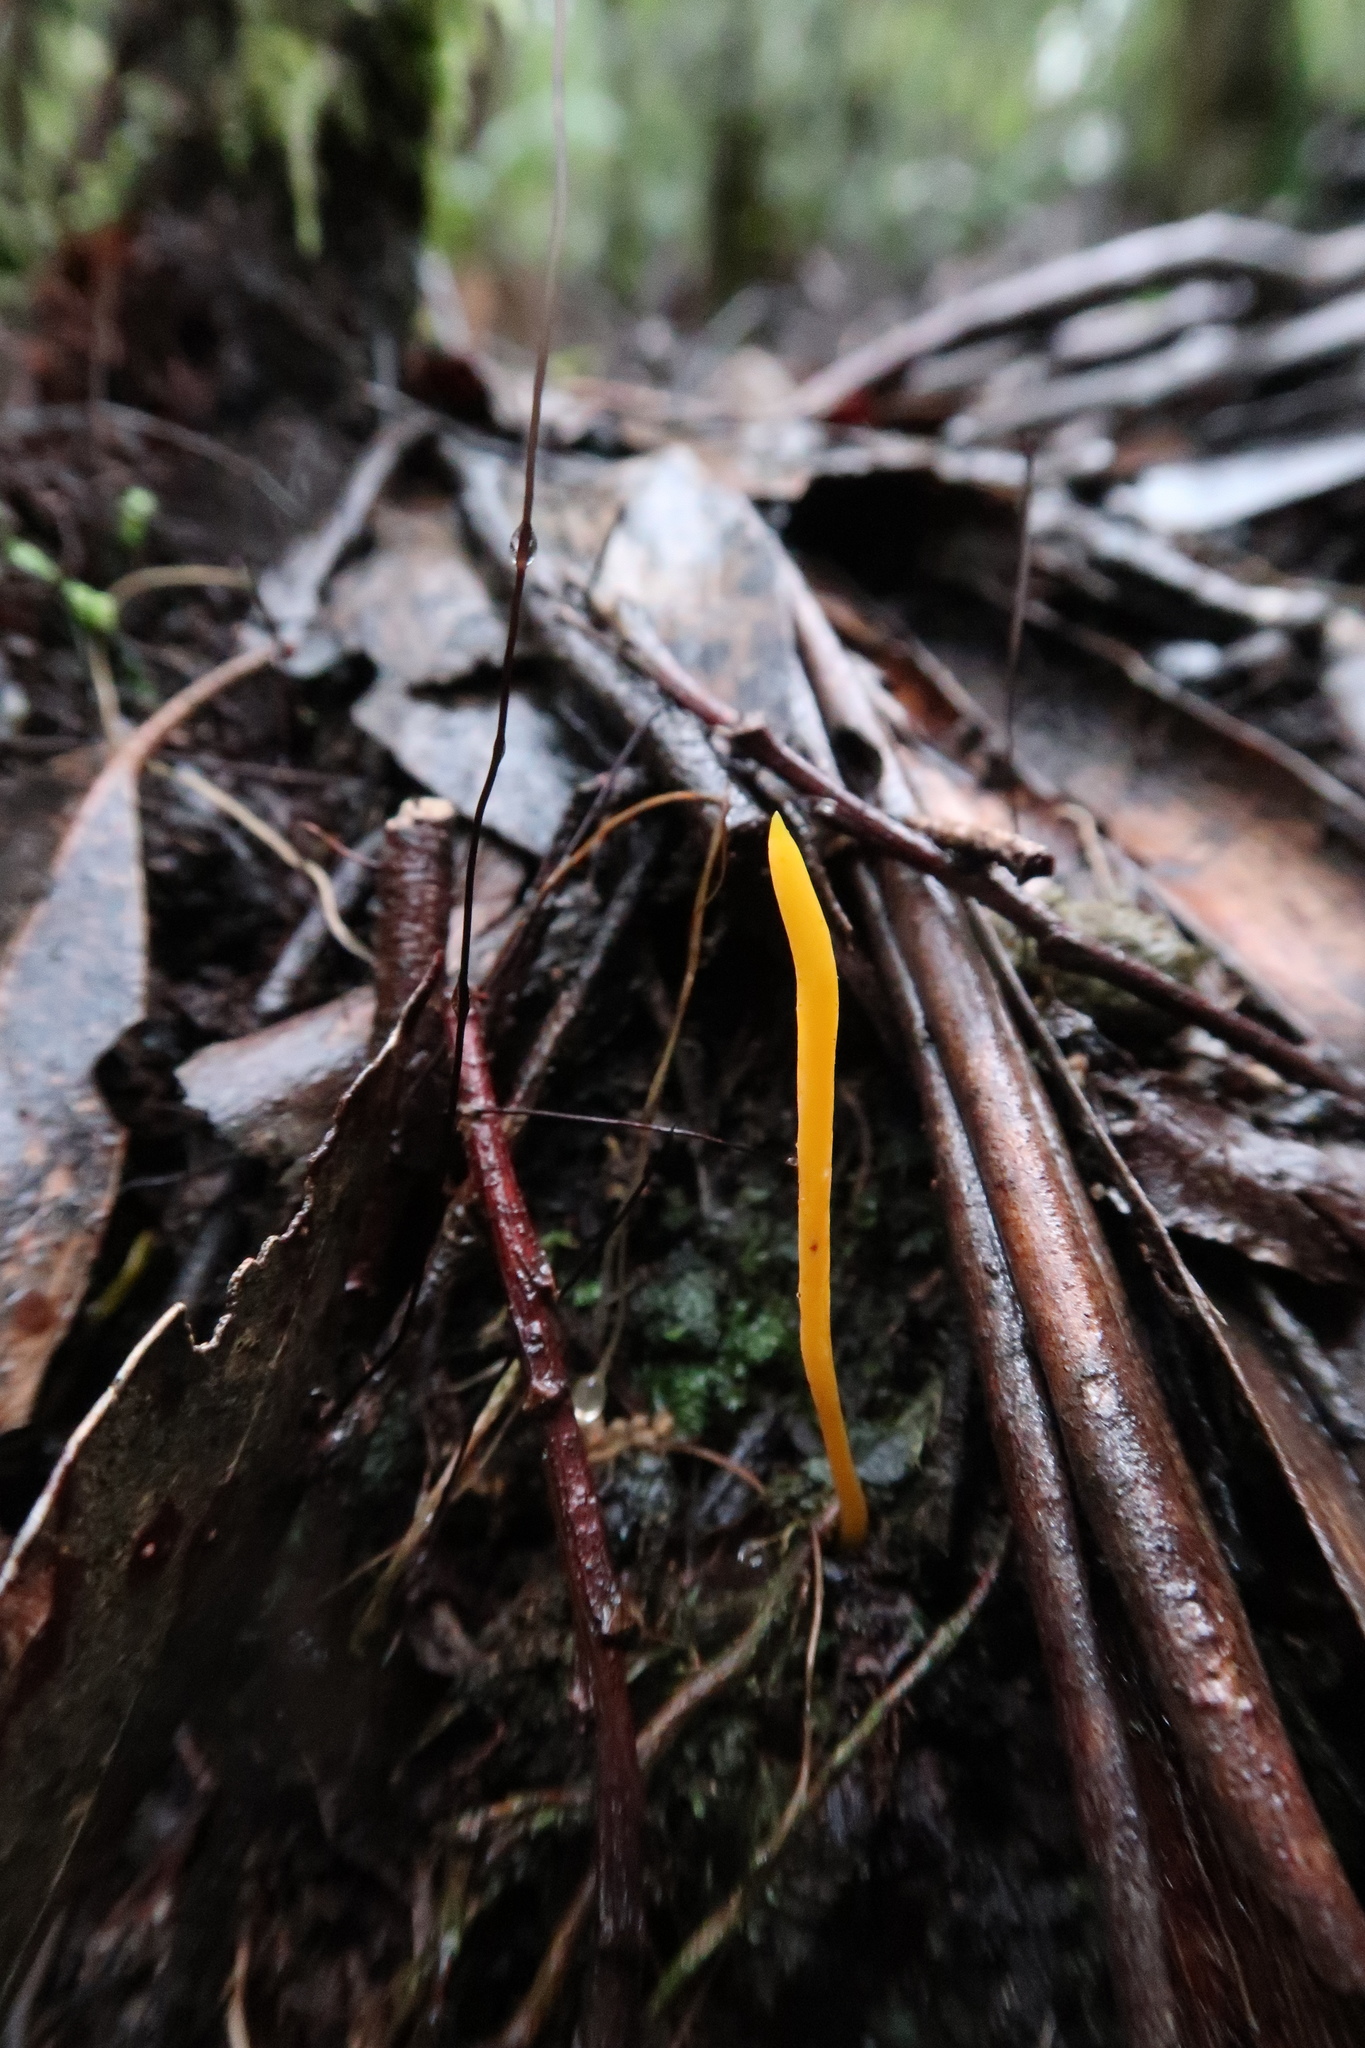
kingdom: Fungi
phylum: Basidiomycota
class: Agaricomycetes
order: Agaricales
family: Clavariaceae
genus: Clavulinopsis
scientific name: Clavulinopsis amoena
